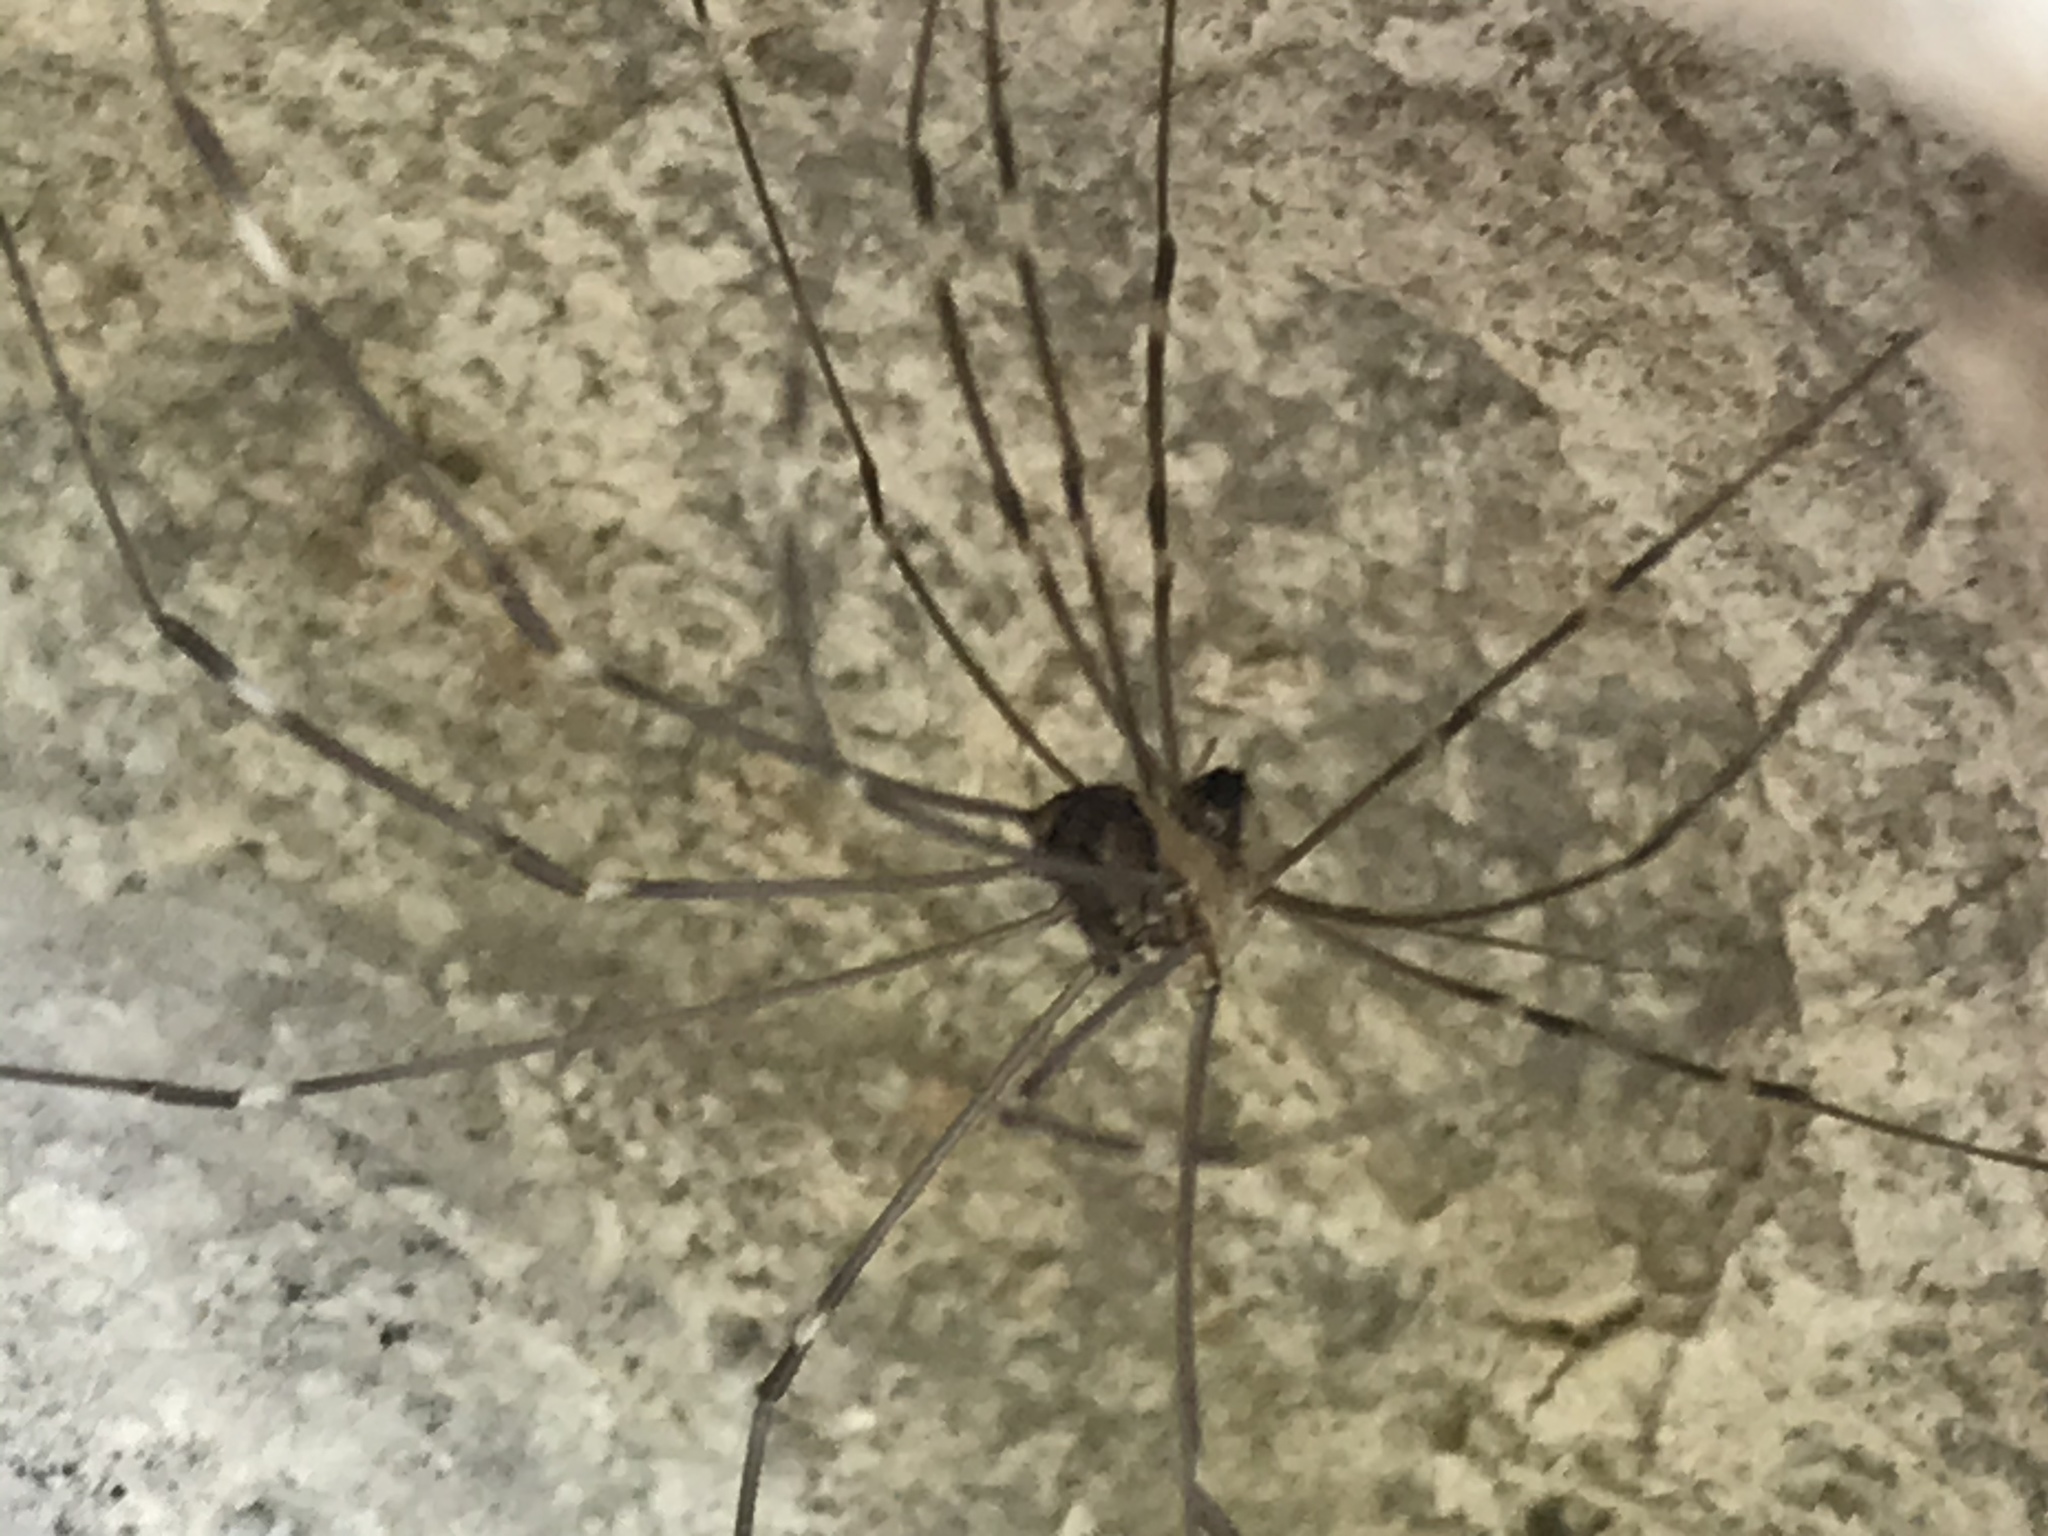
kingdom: Animalia
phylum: Arthropoda
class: Arachnida
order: Opiliones
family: Sclerosomatidae
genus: Leiobunum
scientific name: Leiobunum townsendi
